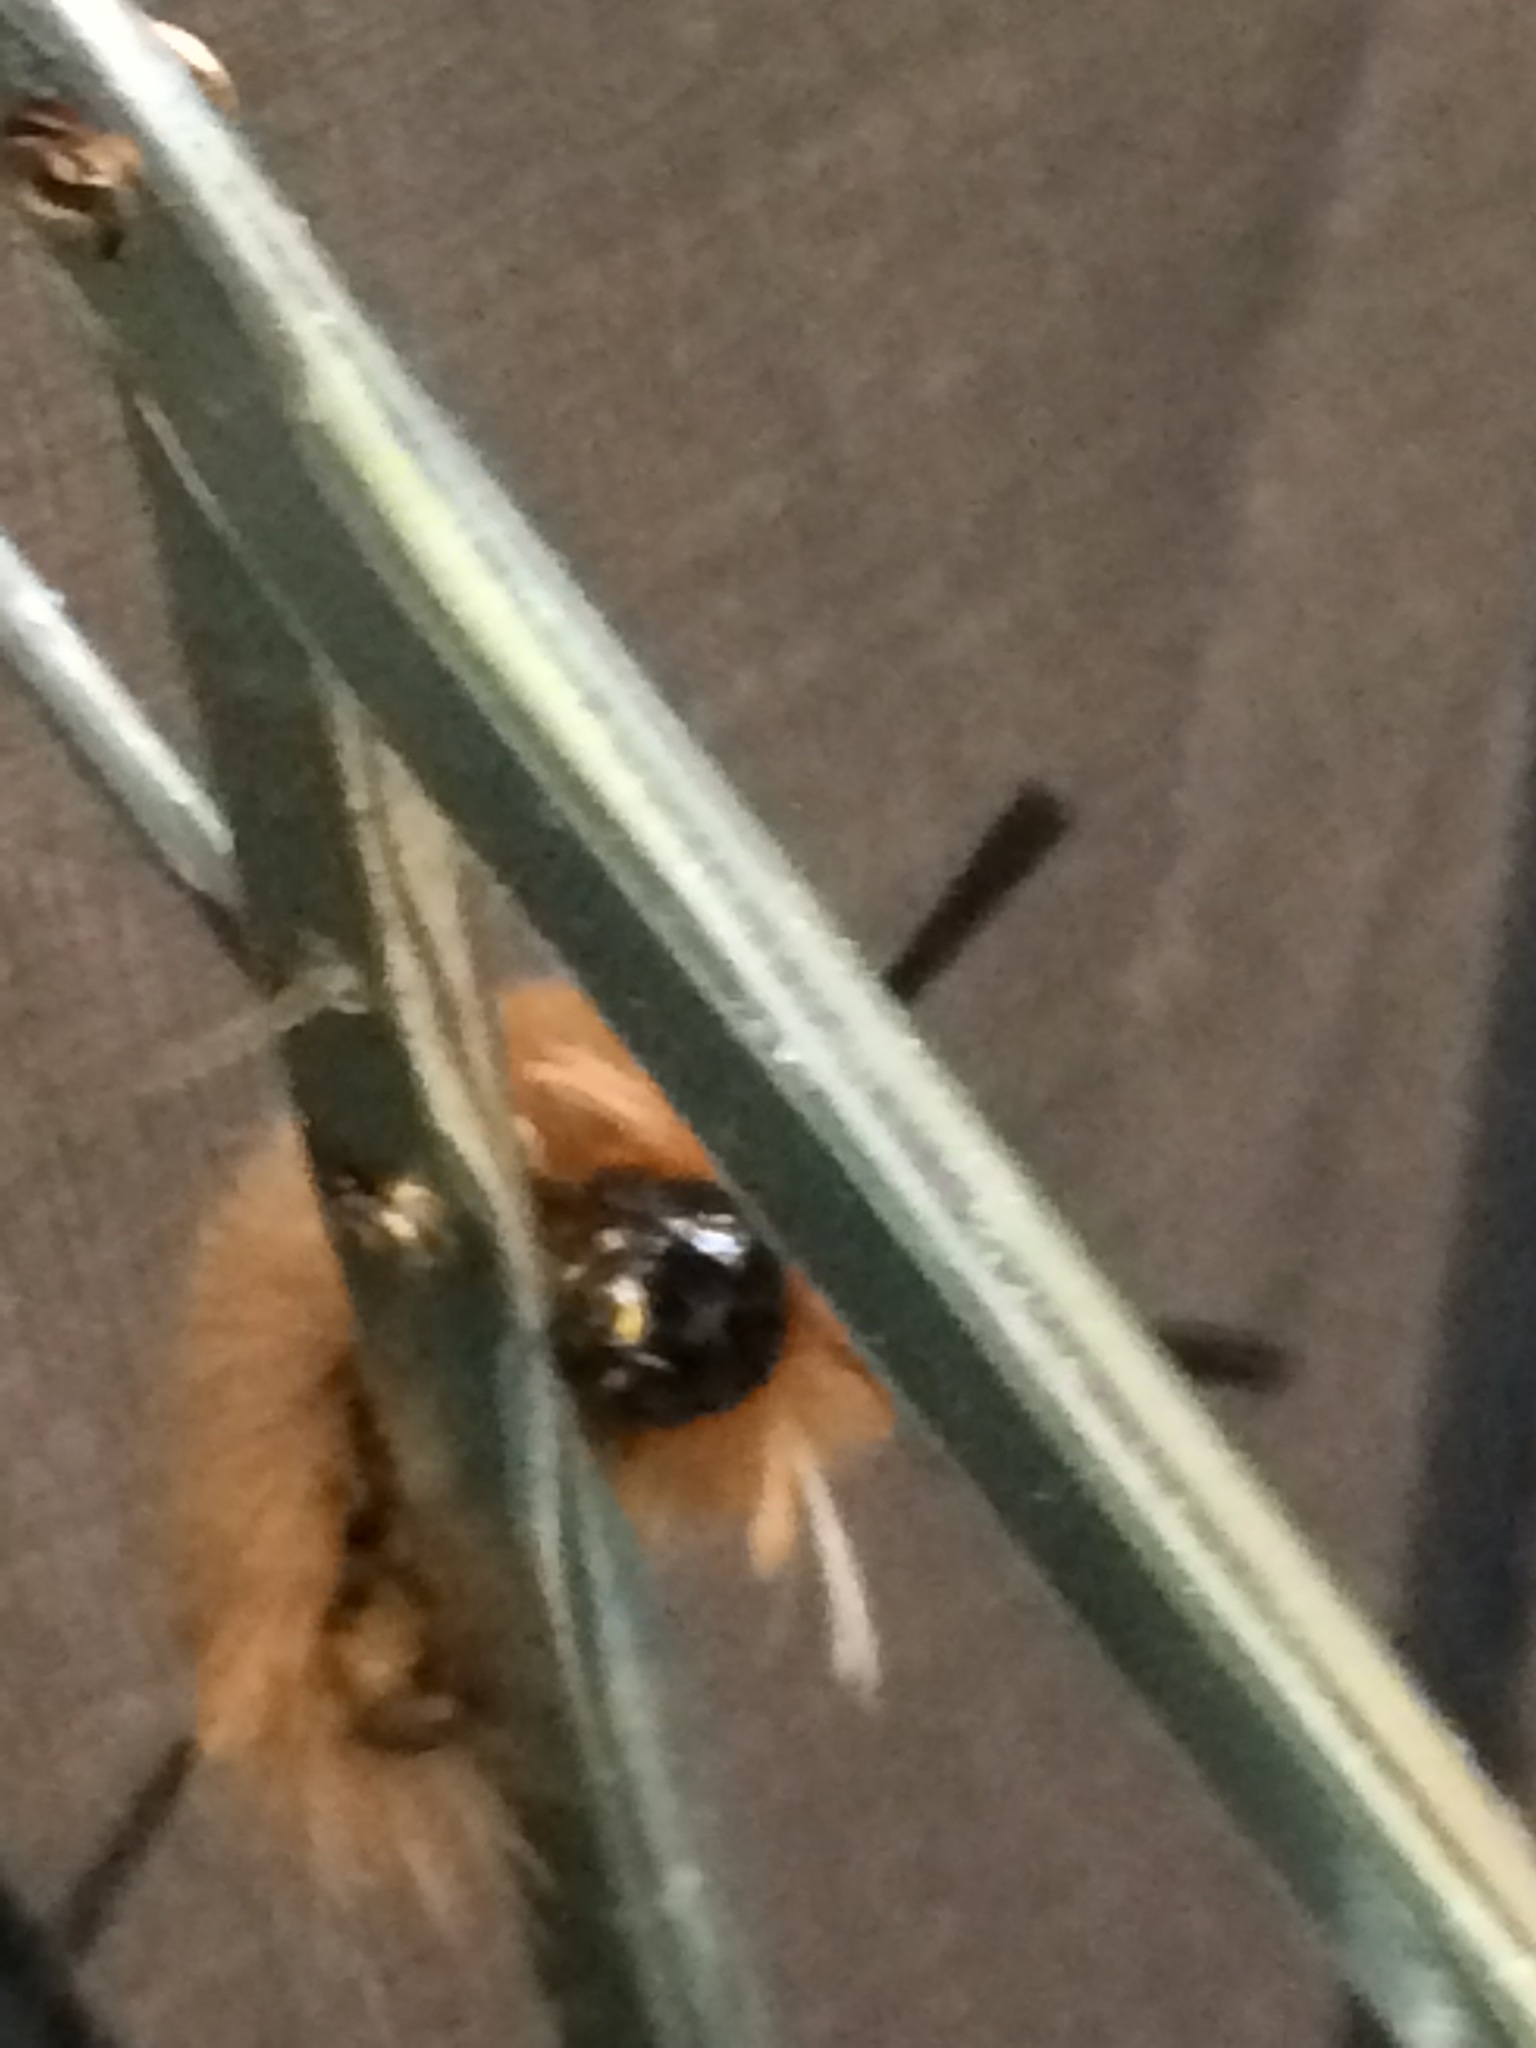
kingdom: Animalia
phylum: Arthropoda
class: Insecta
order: Lepidoptera
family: Erebidae
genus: Halysidota
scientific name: Halysidota tessellaris
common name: Banded tussock moth
